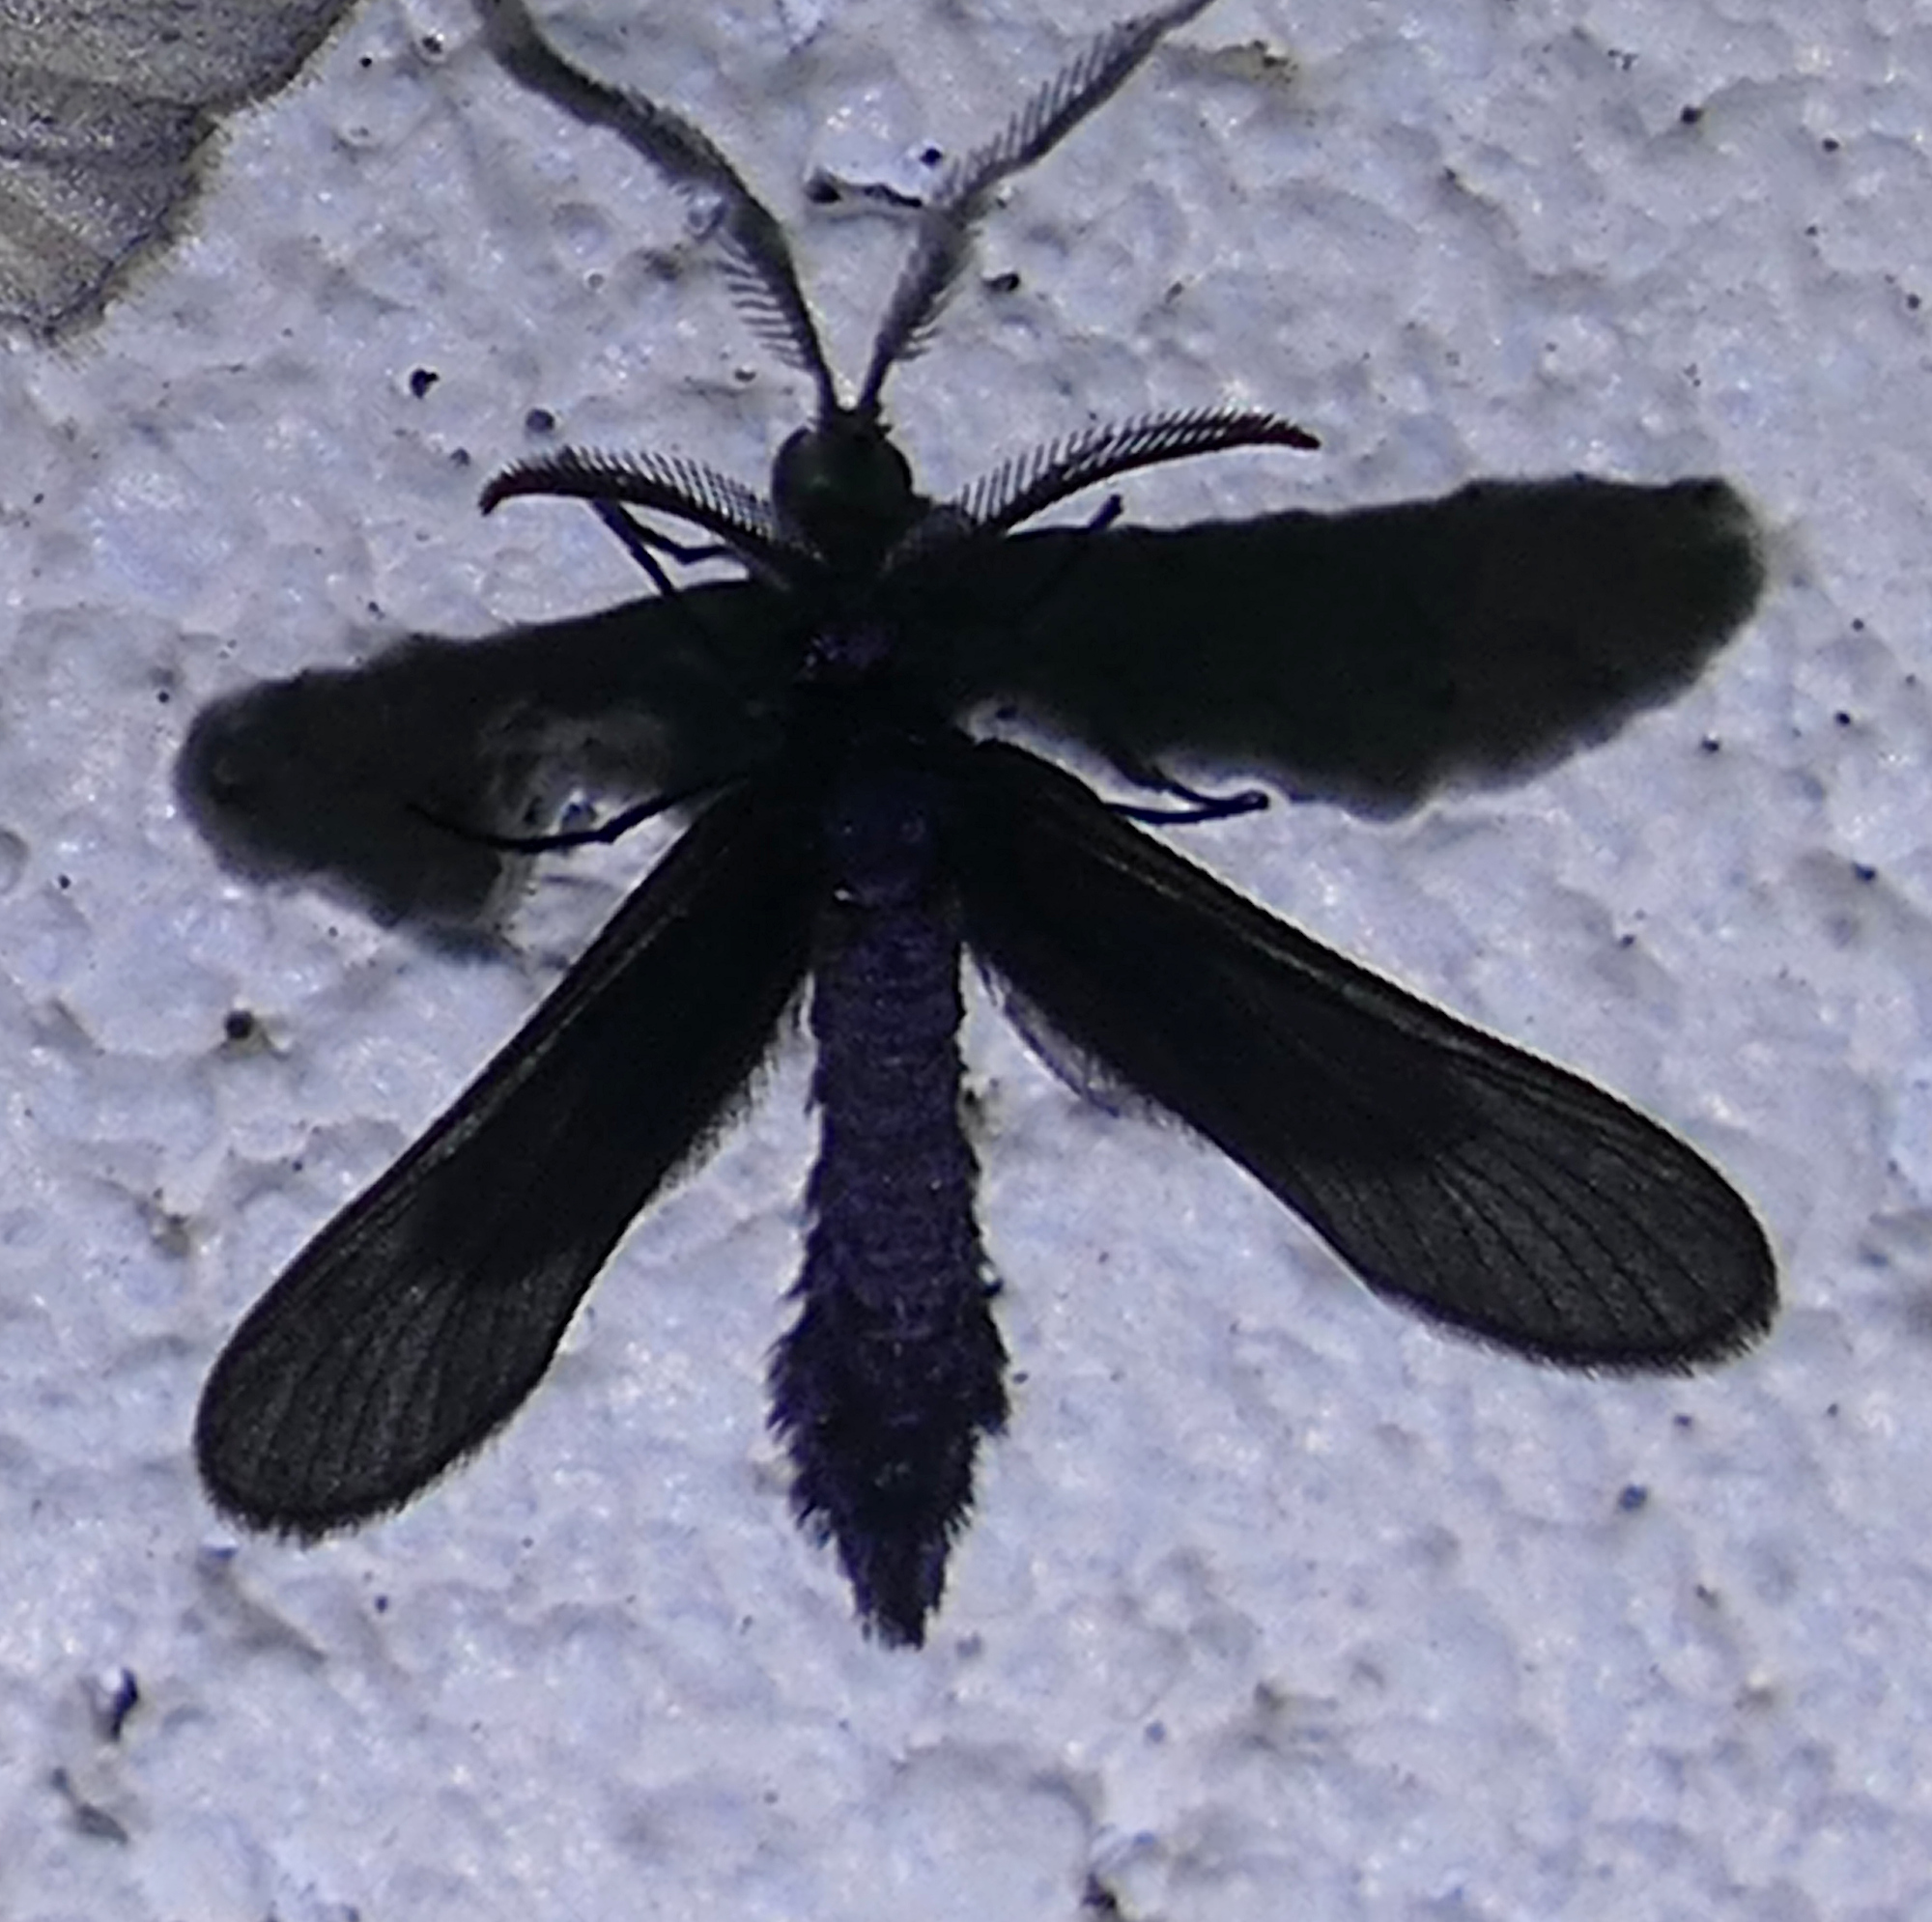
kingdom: Animalia
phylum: Arthropoda
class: Insecta
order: Lepidoptera
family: Zygaenidae
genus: Harrisina
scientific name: Harrisina coracina
